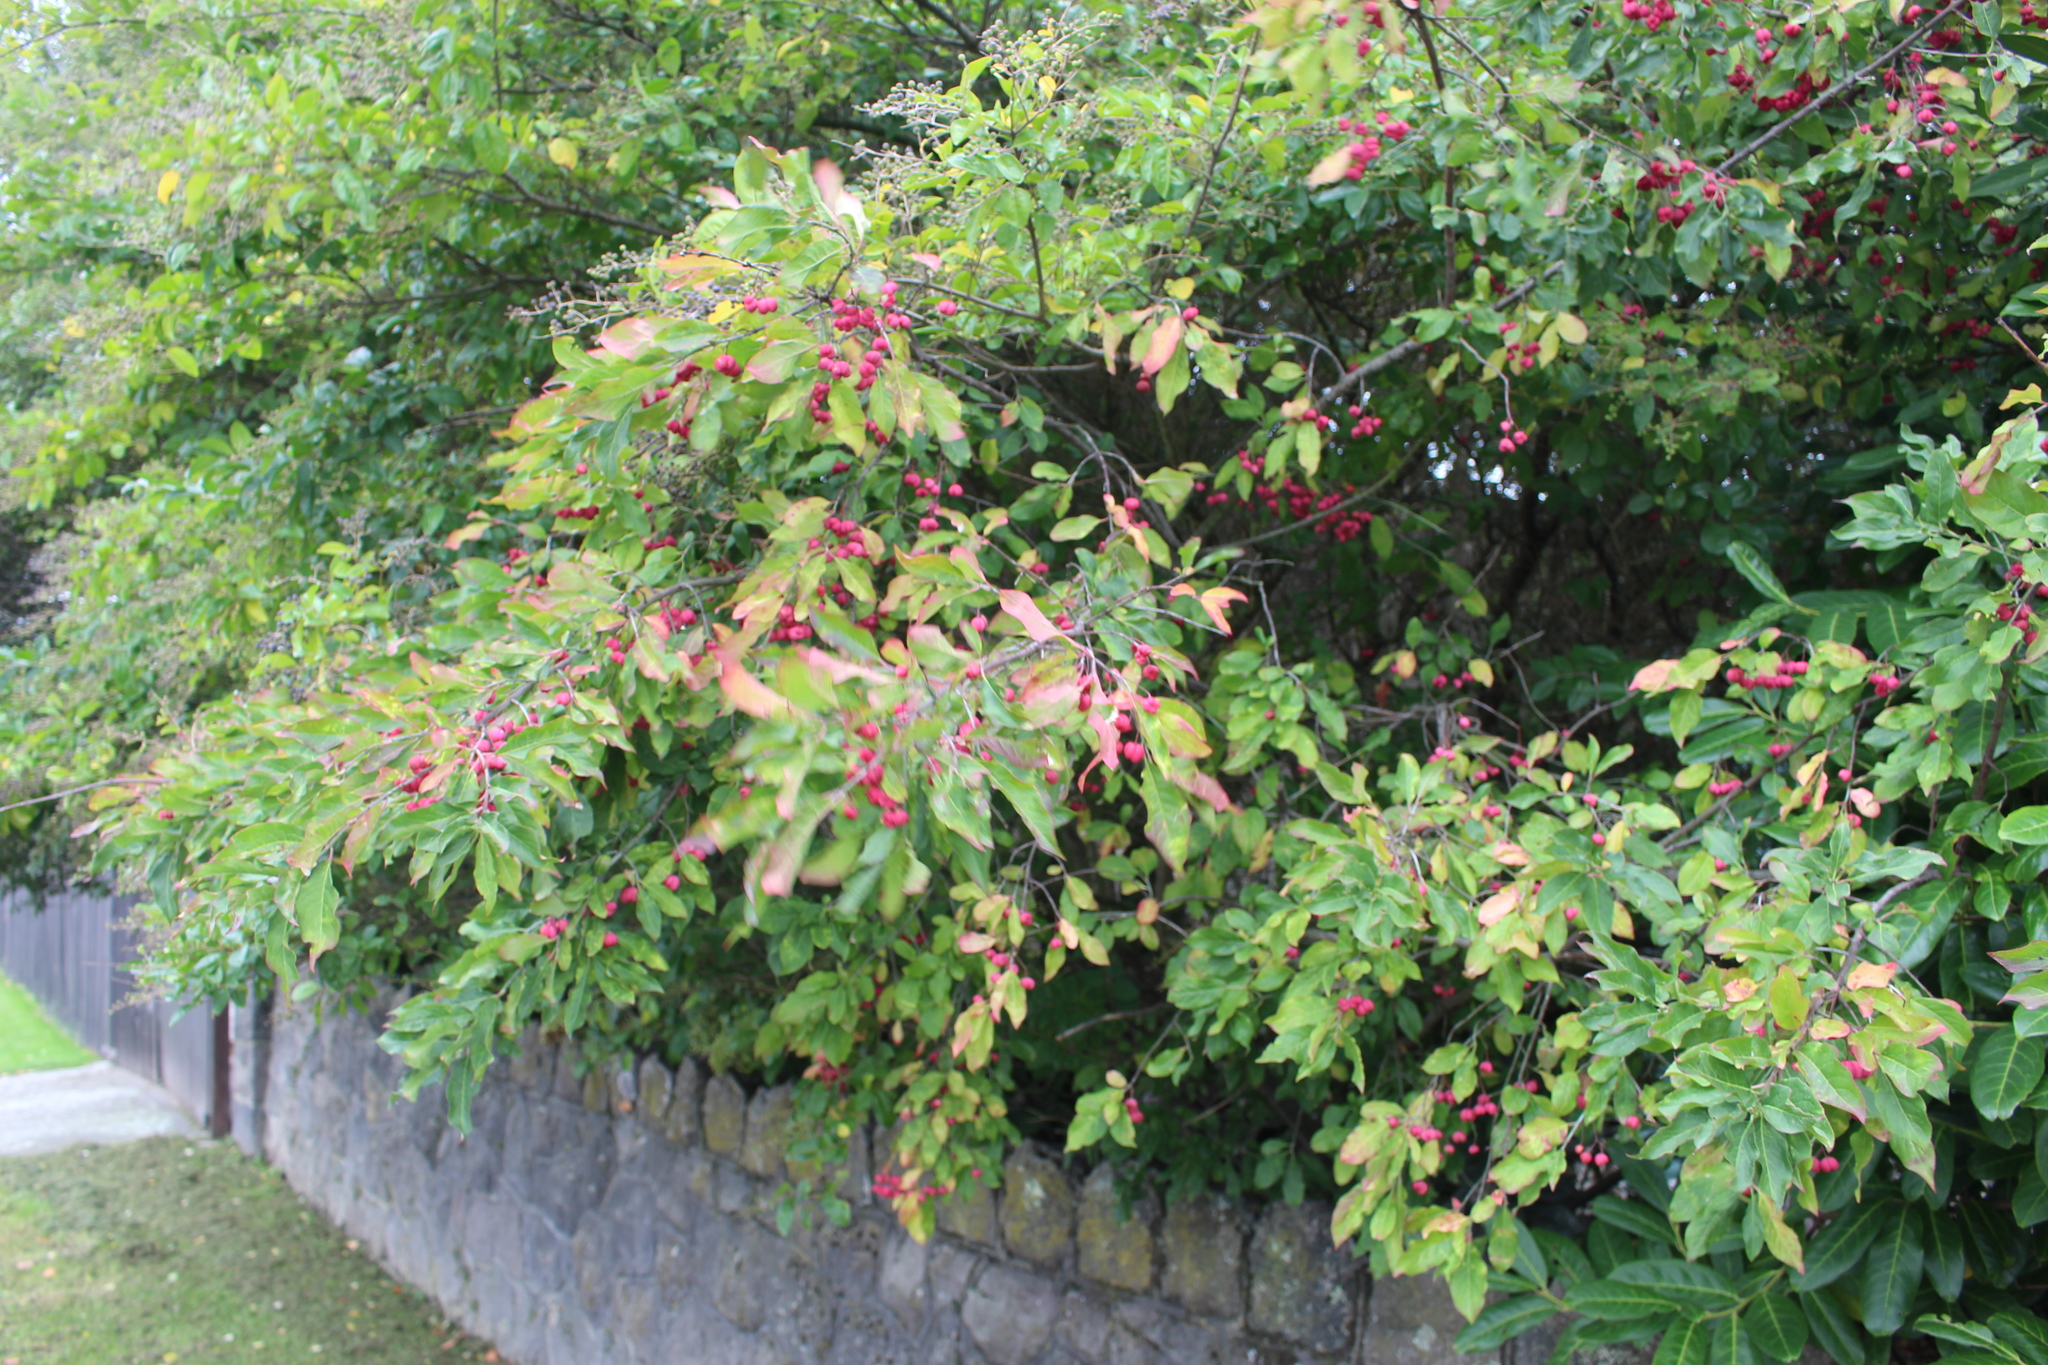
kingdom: Plantae
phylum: Tracheophyta
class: Magnoliopsida
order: Celastrales
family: Celastraceae
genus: Euonymus
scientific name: Euonymus europaeus
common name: Spindle
